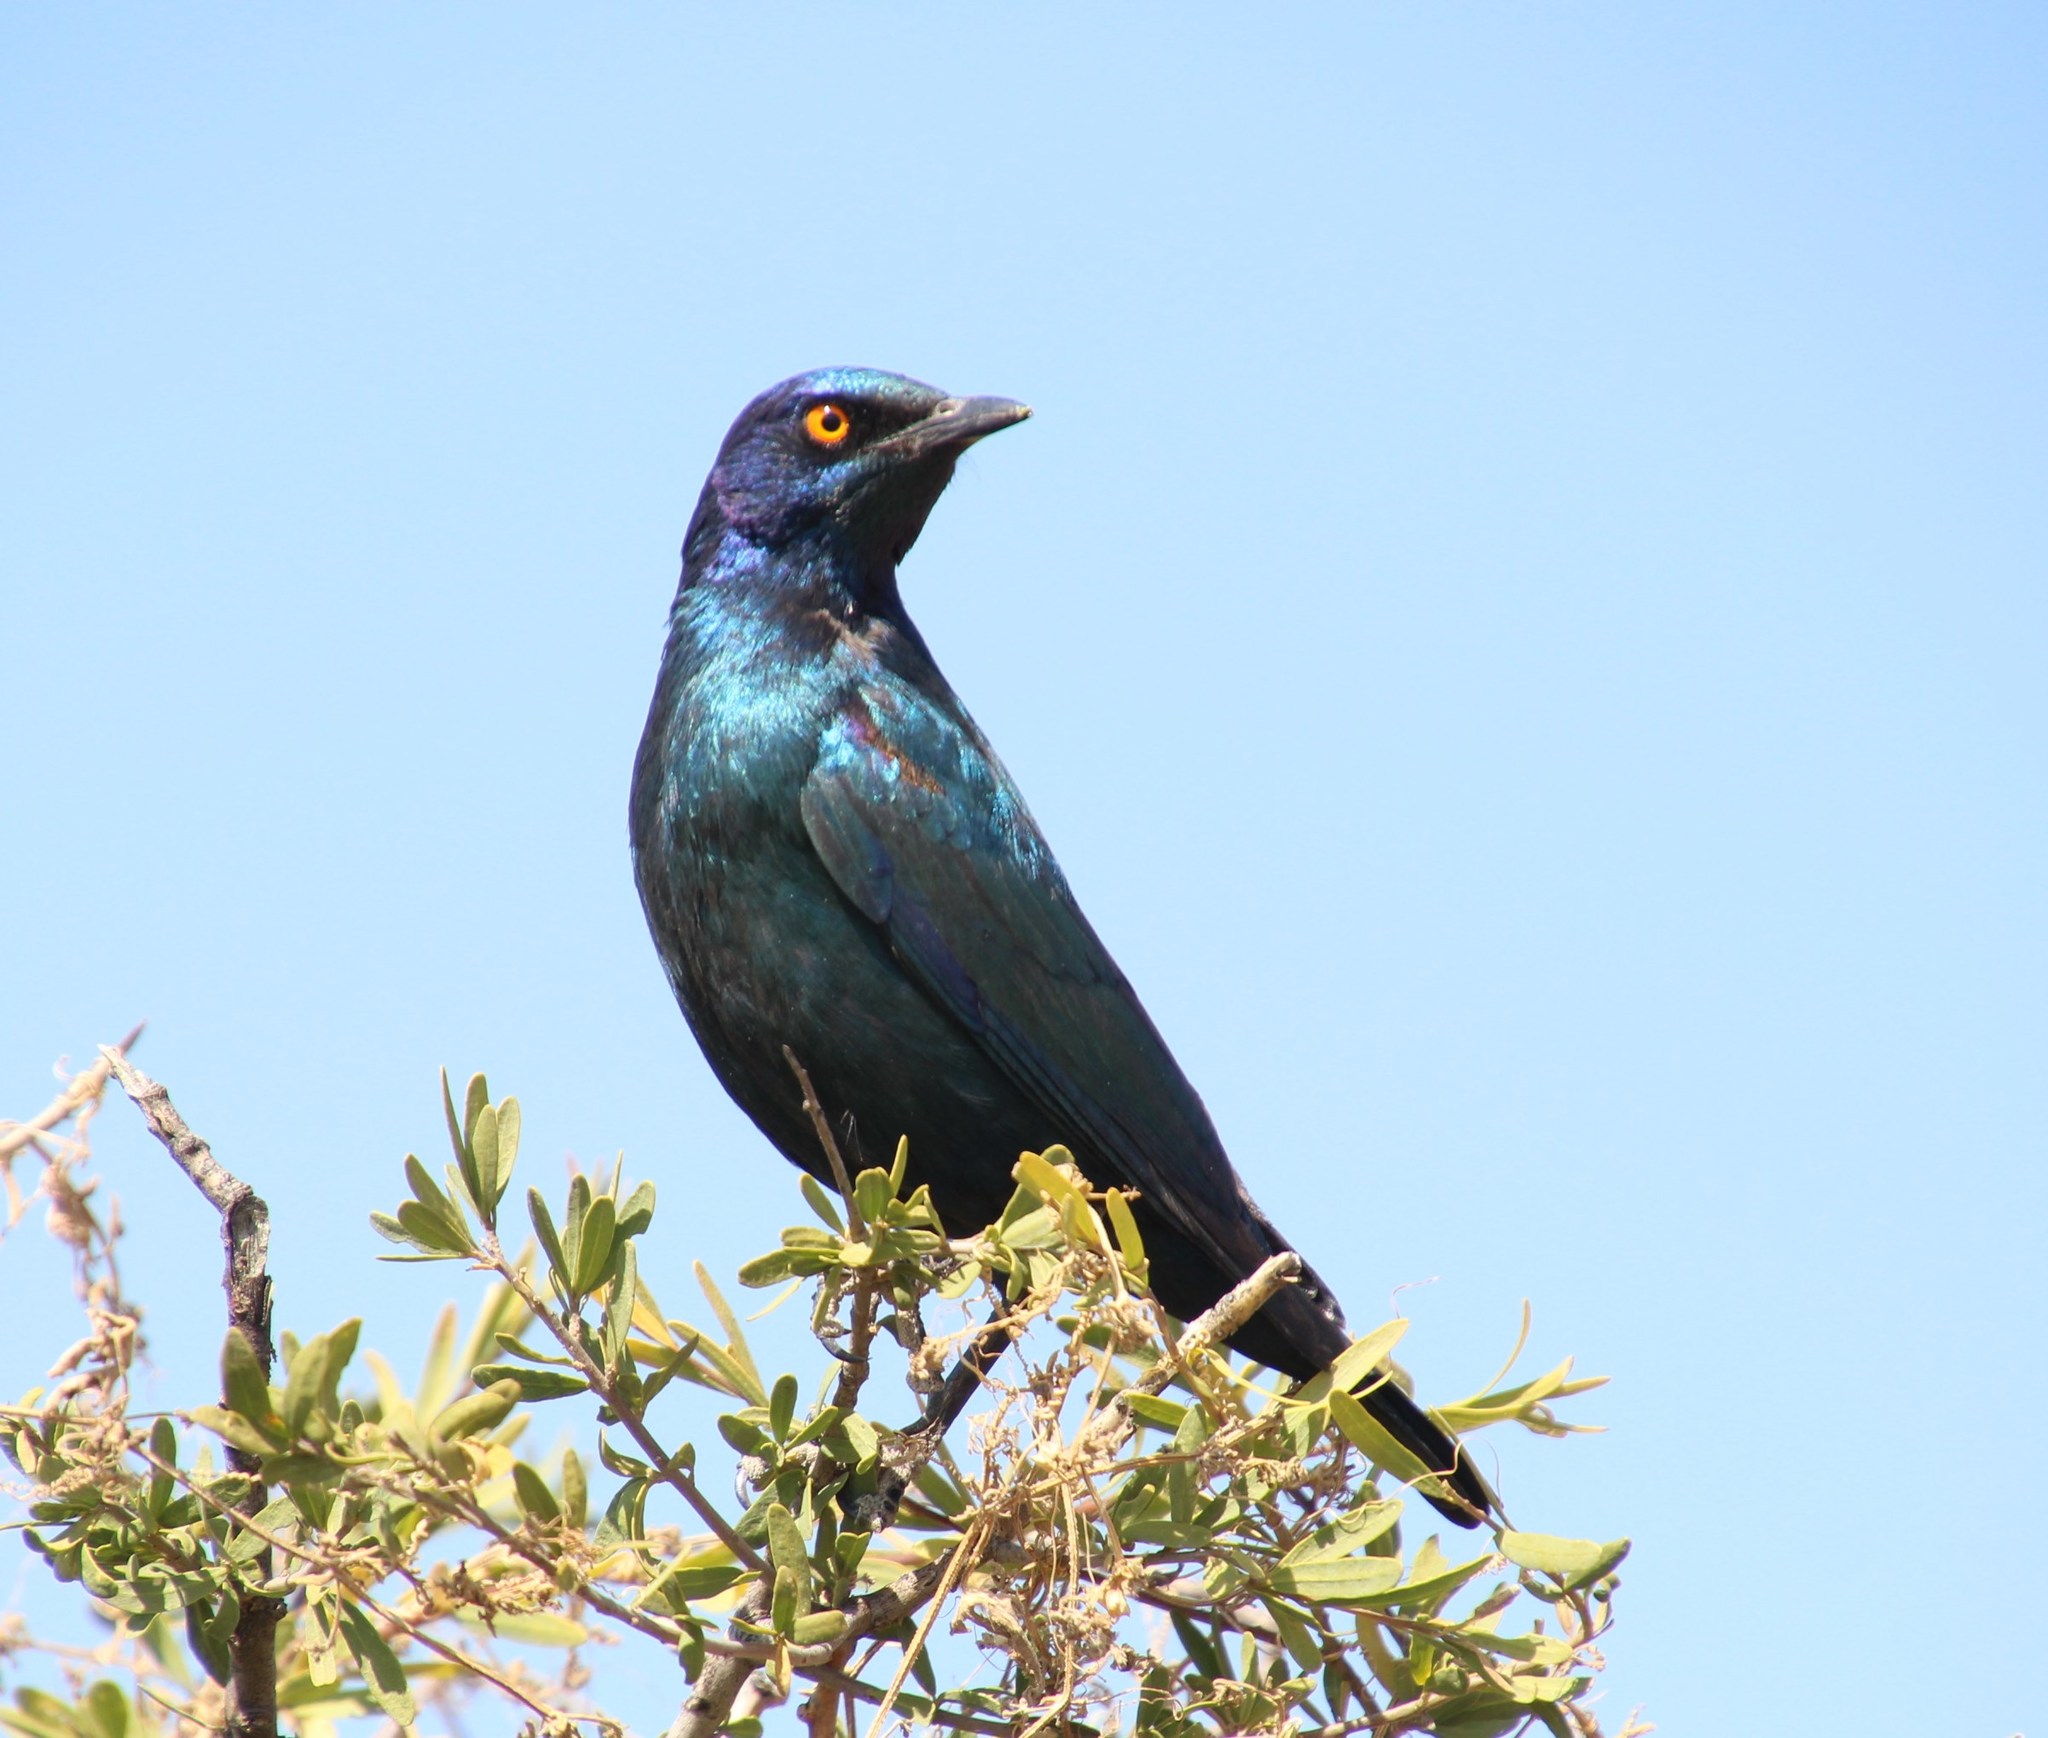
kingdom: Animalia
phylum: Chordata
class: Aves
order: Passeriformes
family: Sturnidae
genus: Lamprotornis
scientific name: Lamprotornis nitens
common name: Cape starling
